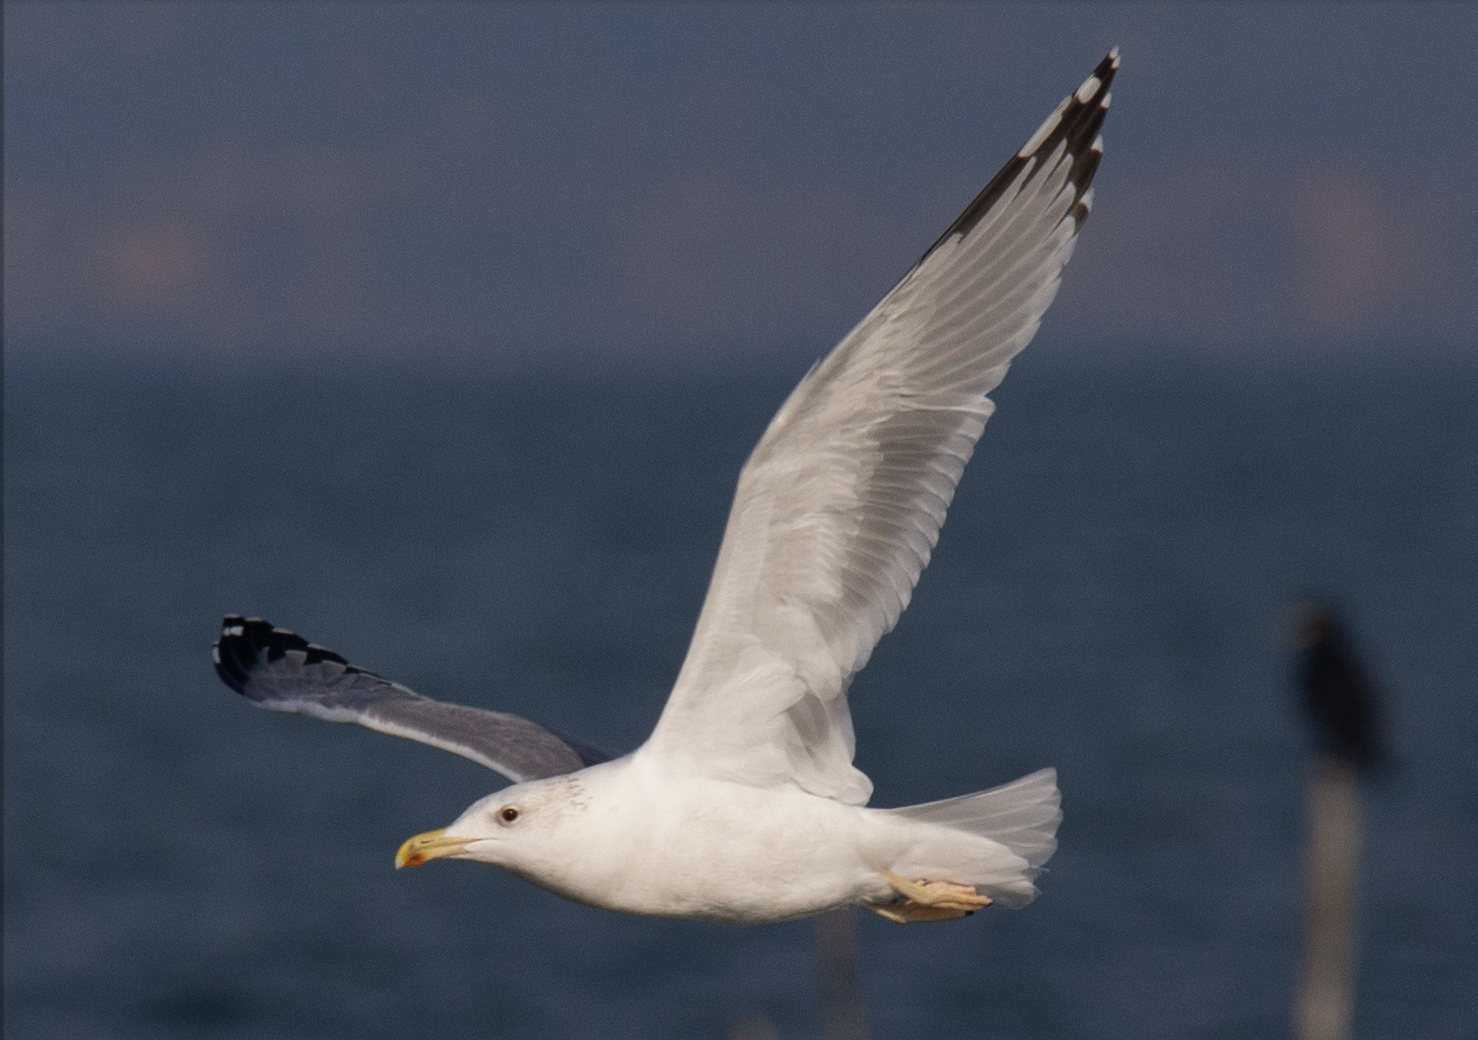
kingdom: Animalia
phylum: Chordata
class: Aves
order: Charadriiformes
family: Laridae
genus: Larus
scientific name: Larus cachinnans
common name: Caspian gull
